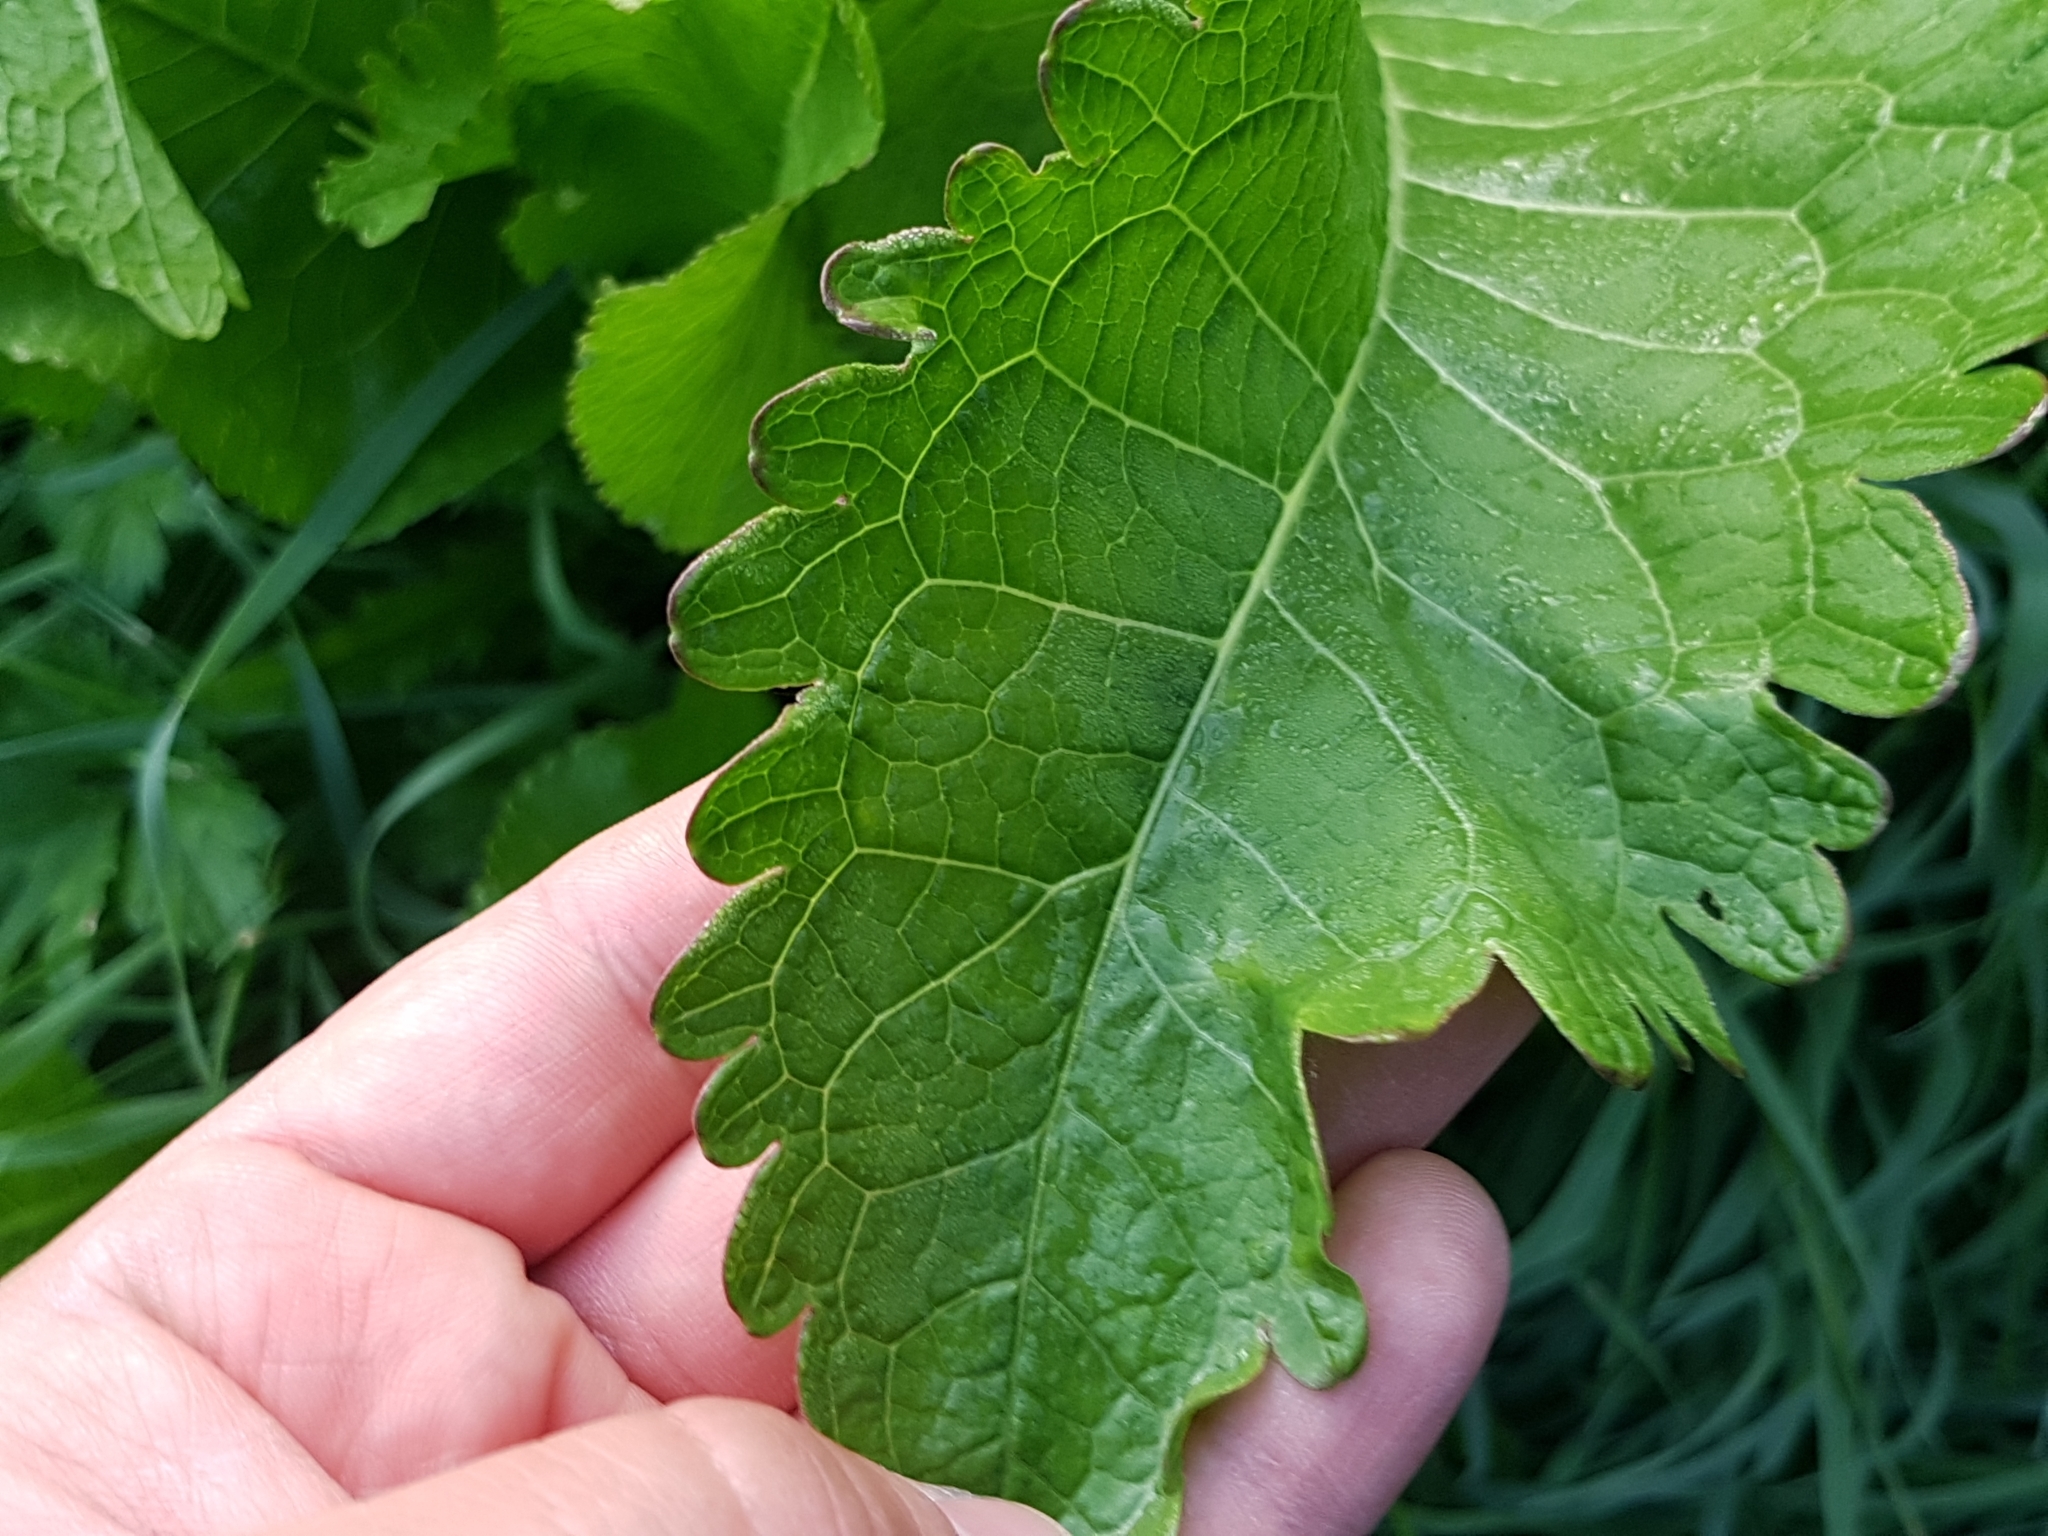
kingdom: Plantae
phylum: Tracheophyta
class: Magnoliopsida
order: Brassicales
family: Brassicaceae
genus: Armoracia
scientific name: Armoracia rusticana
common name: Horseradish
